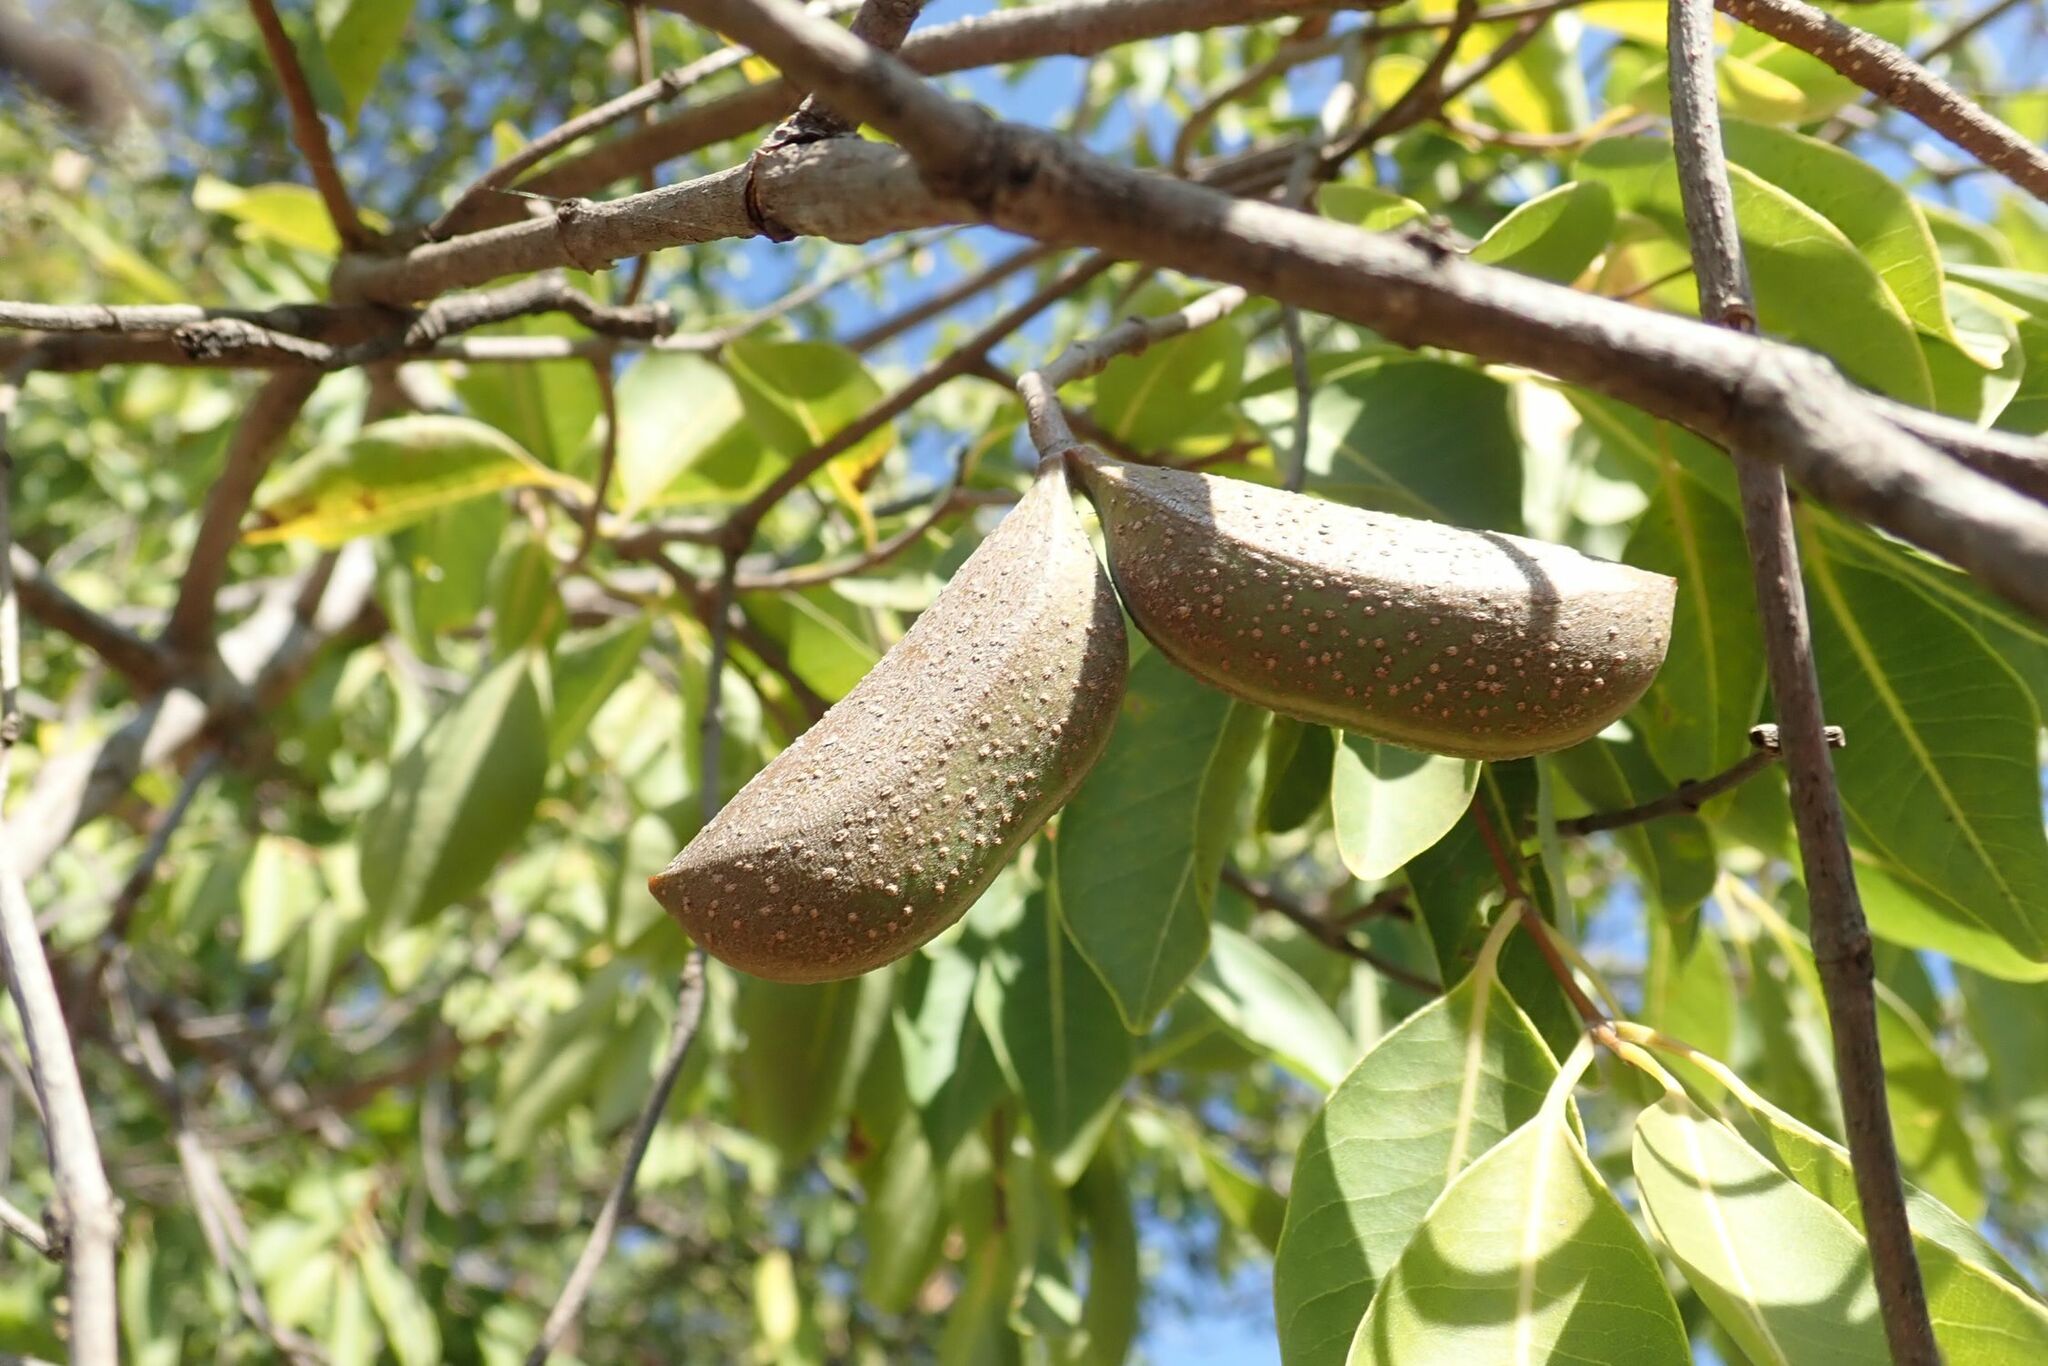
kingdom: Plantae
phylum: Tracheophyta
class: Magnoliopsida
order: Gentianales
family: Apocynaceae
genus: Diplorhynchus
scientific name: Diplorhynchus condylocarpon
